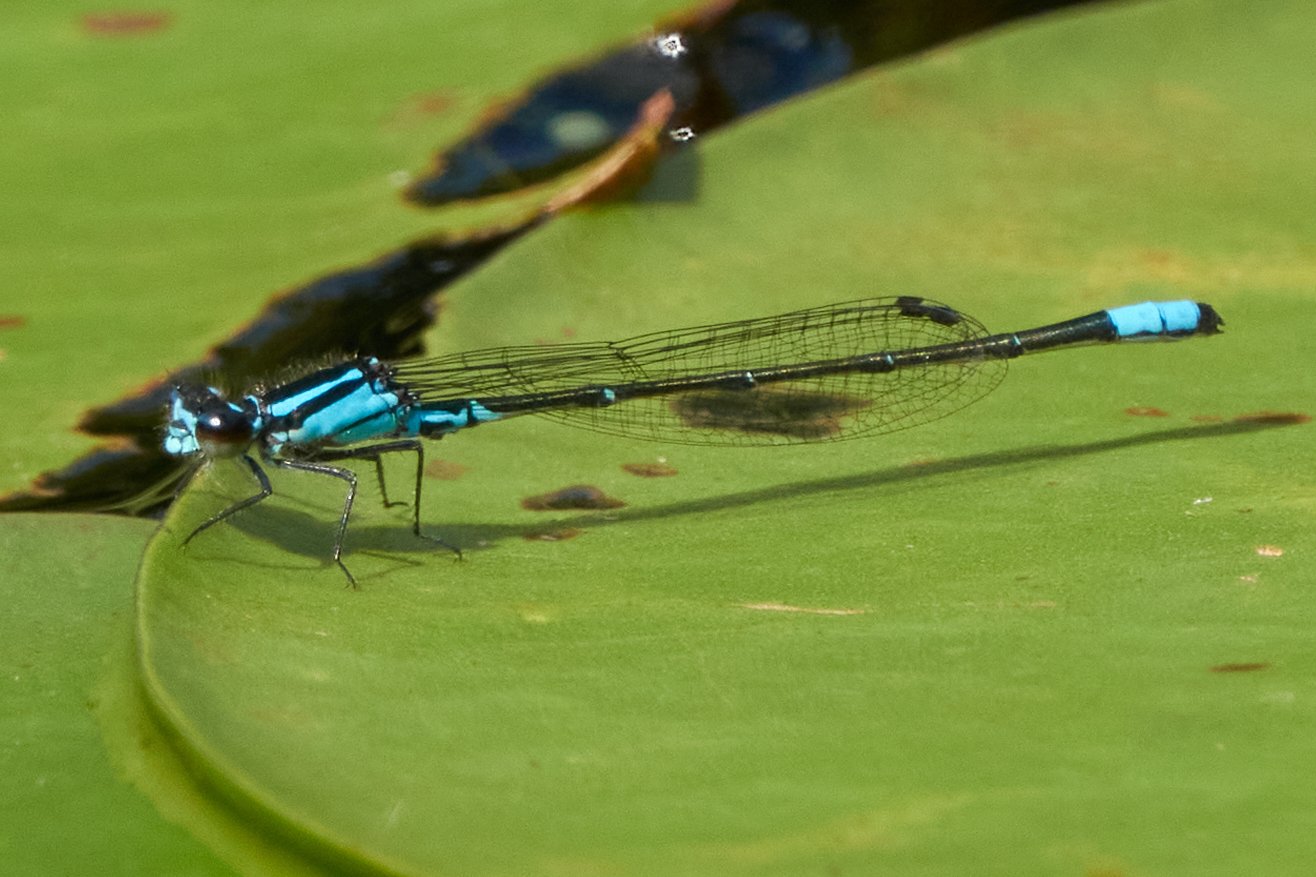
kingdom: Animalia
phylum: Arthropoda
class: Insecta
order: Odonata
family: Coenagrionidae
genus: Enallagma
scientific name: Enallagma geminatum
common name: Skimming bluet
